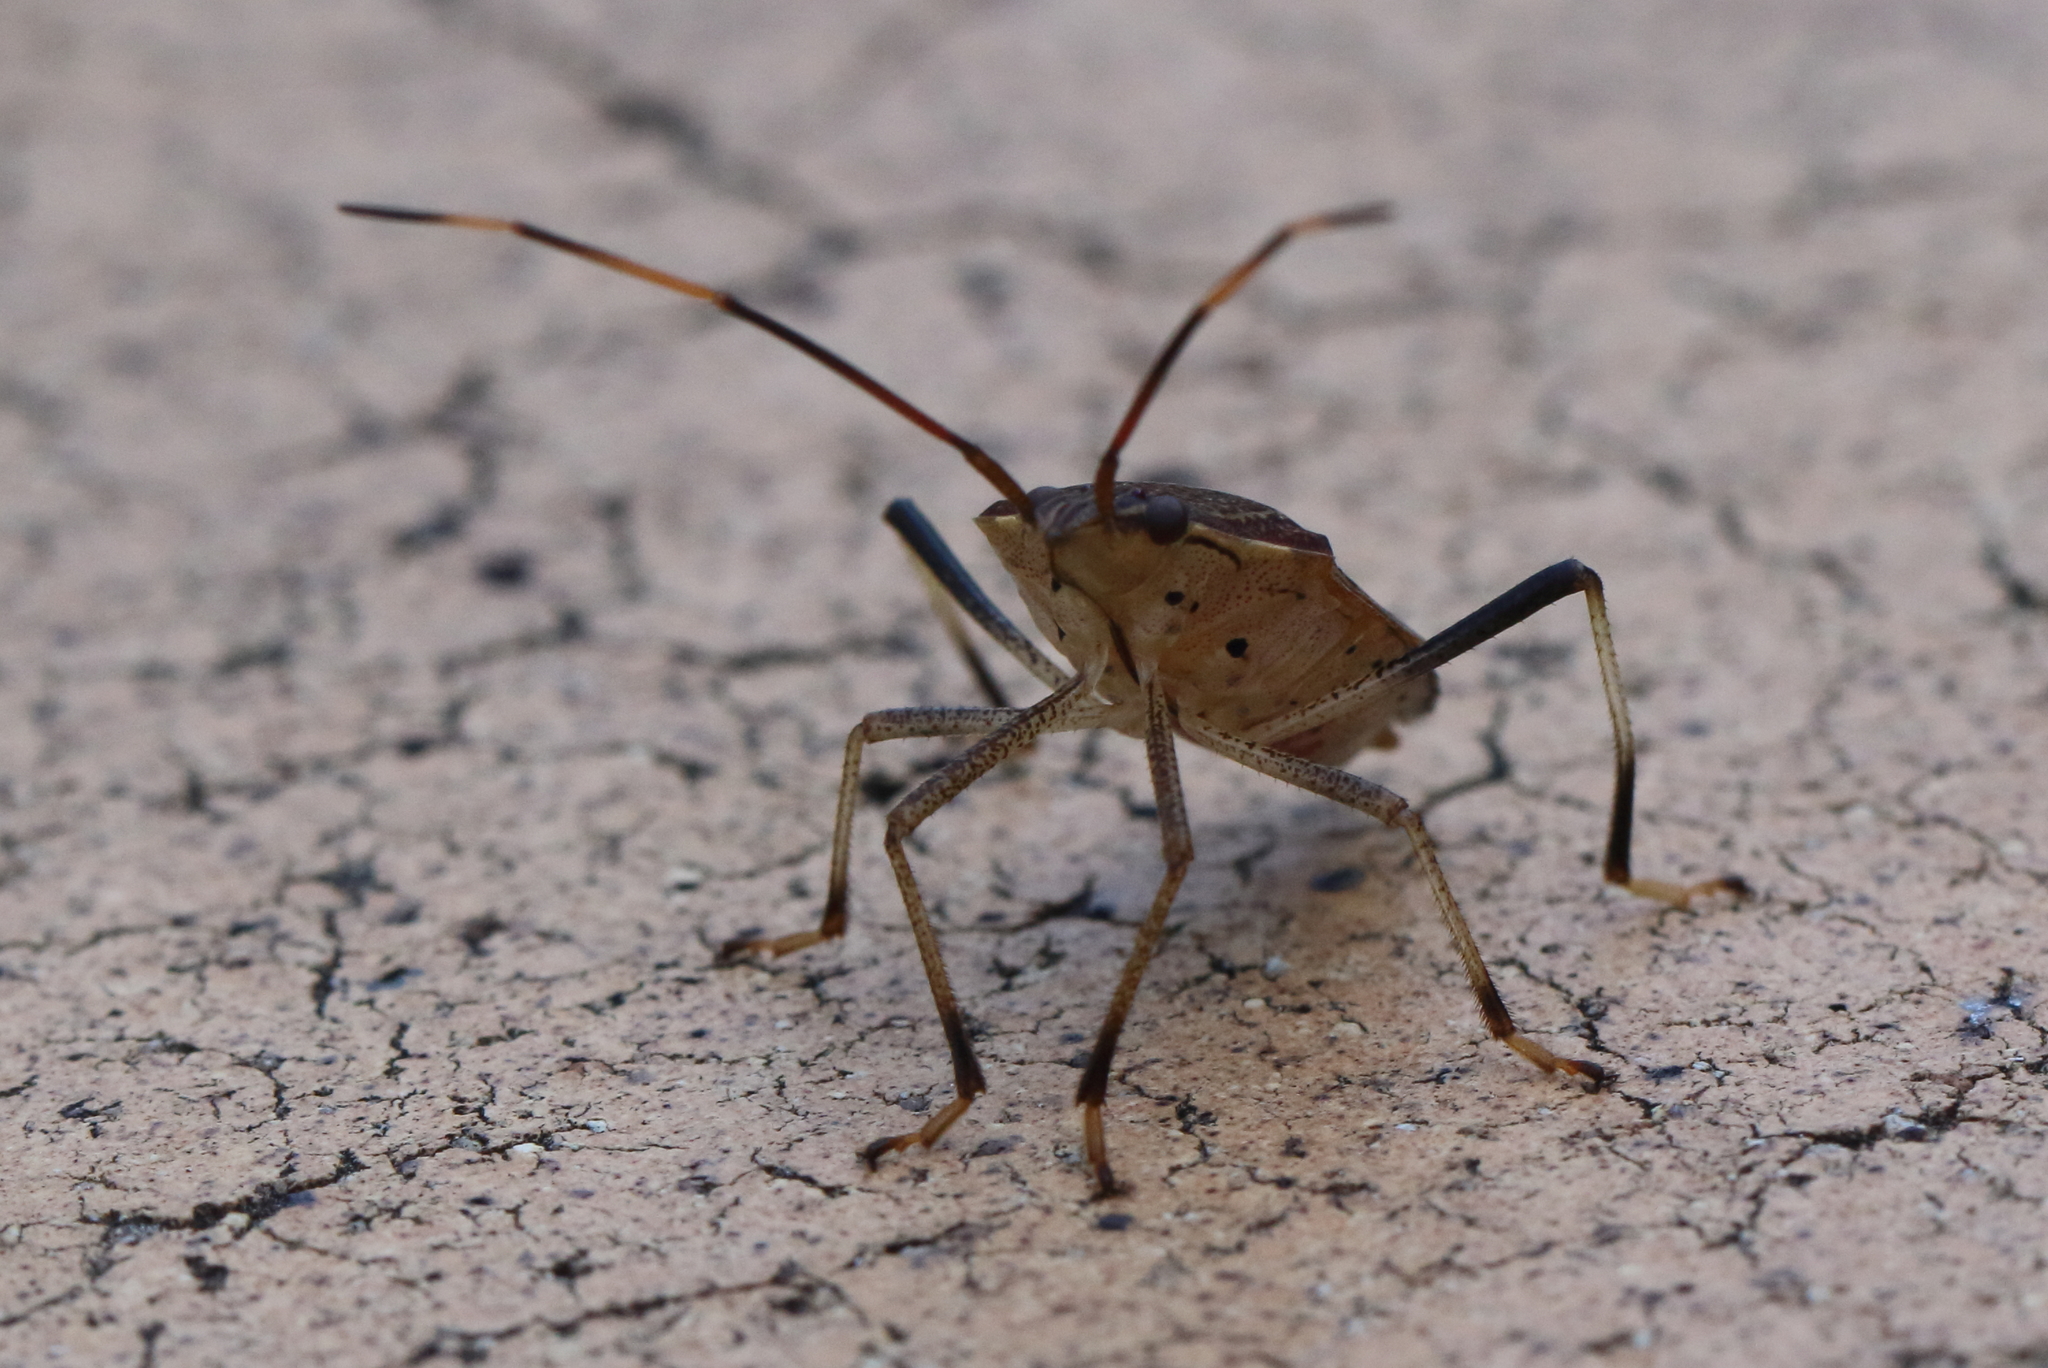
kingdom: Animalia
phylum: Arthropoda
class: Insecta
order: Hemiptera
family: Pentatomidae
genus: Poecilometis
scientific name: Poecilometis
